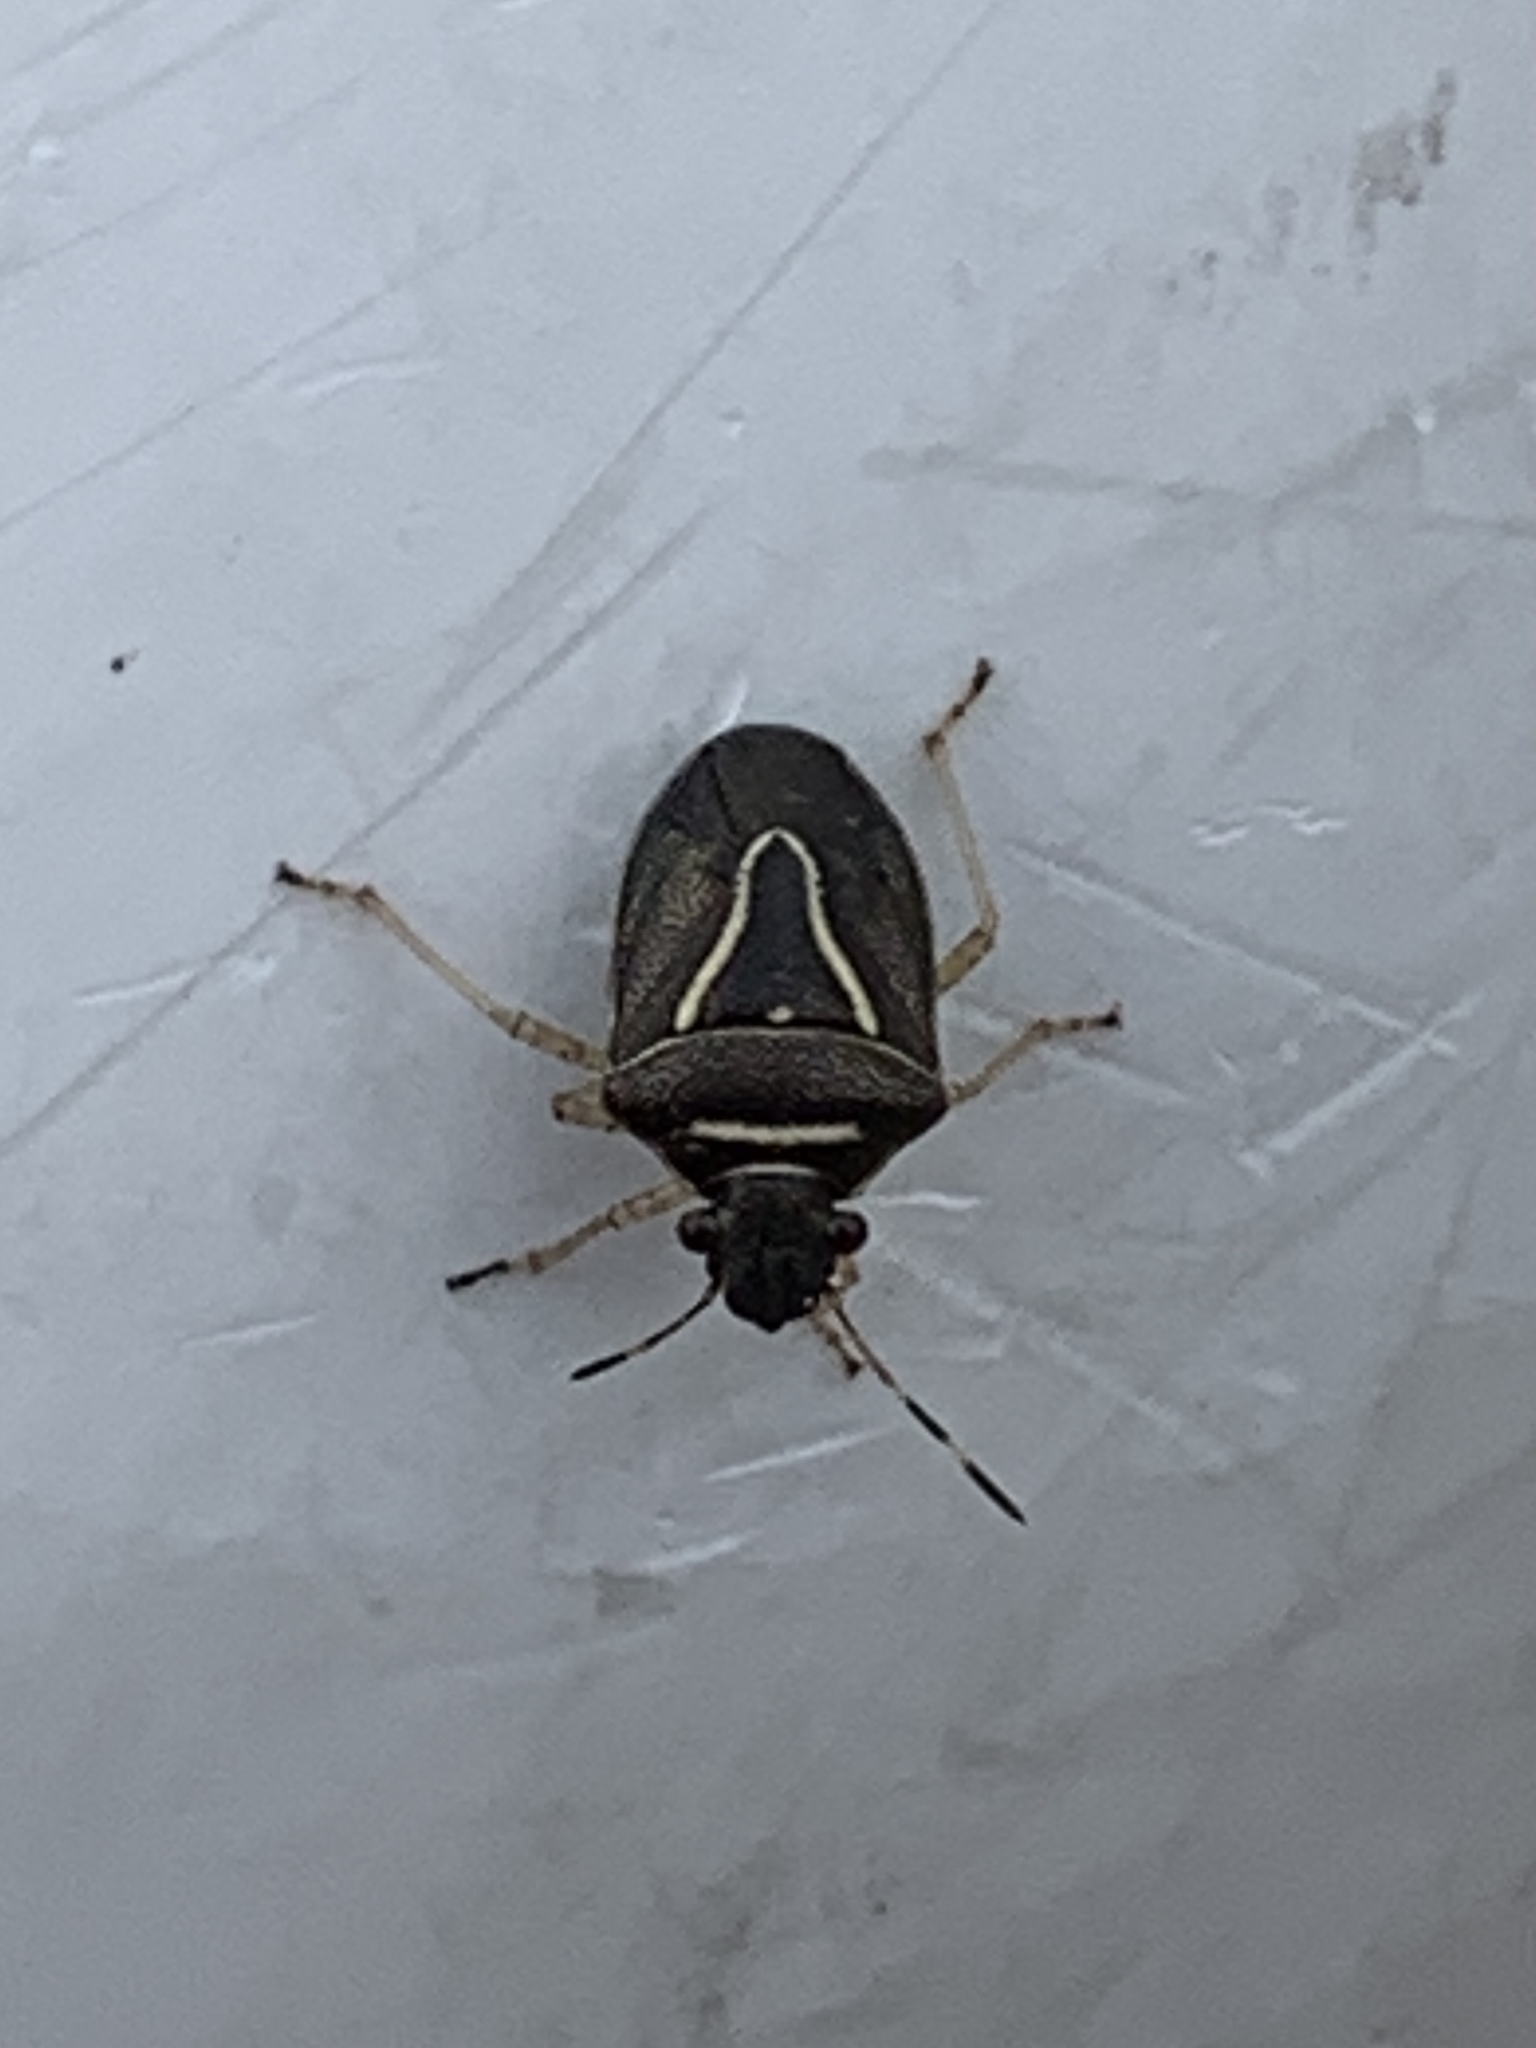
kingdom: Animalia
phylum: Arthropoda
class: Insecta
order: Hemiptera
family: Pentatomidae
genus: Mormidea
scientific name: Mormidea lugens
